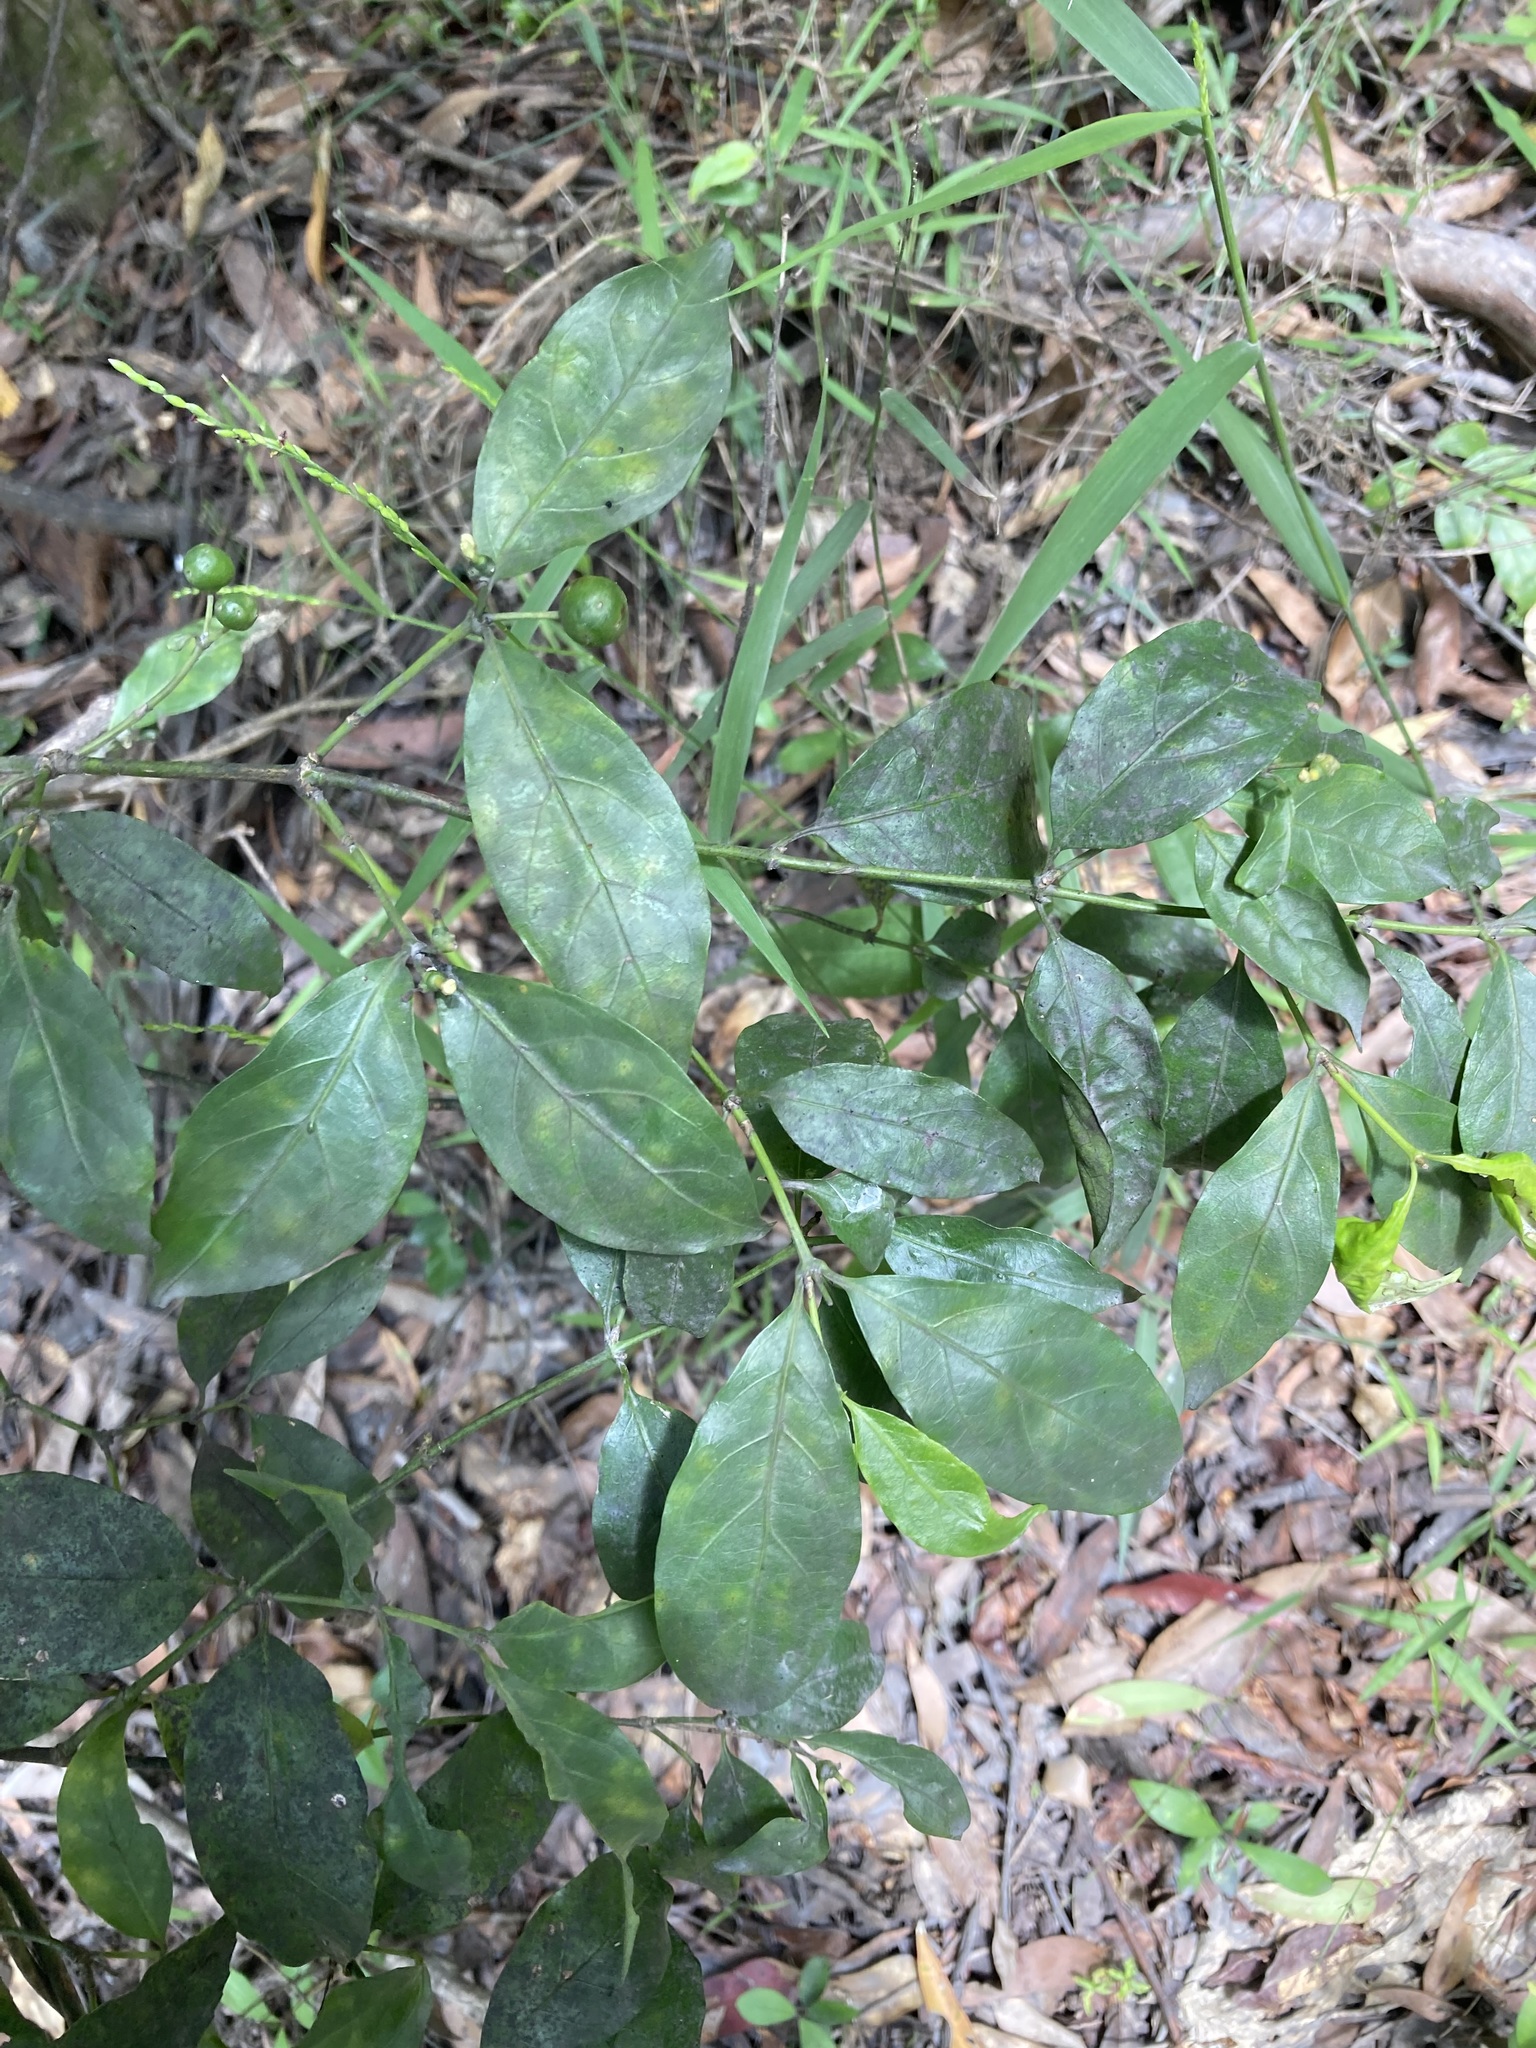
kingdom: Plantae
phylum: Tracheophyta
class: Magnoliopsida
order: Gentianales
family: Rubiaceae
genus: Gynochthodes
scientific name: Gynochthodes jasminoides
